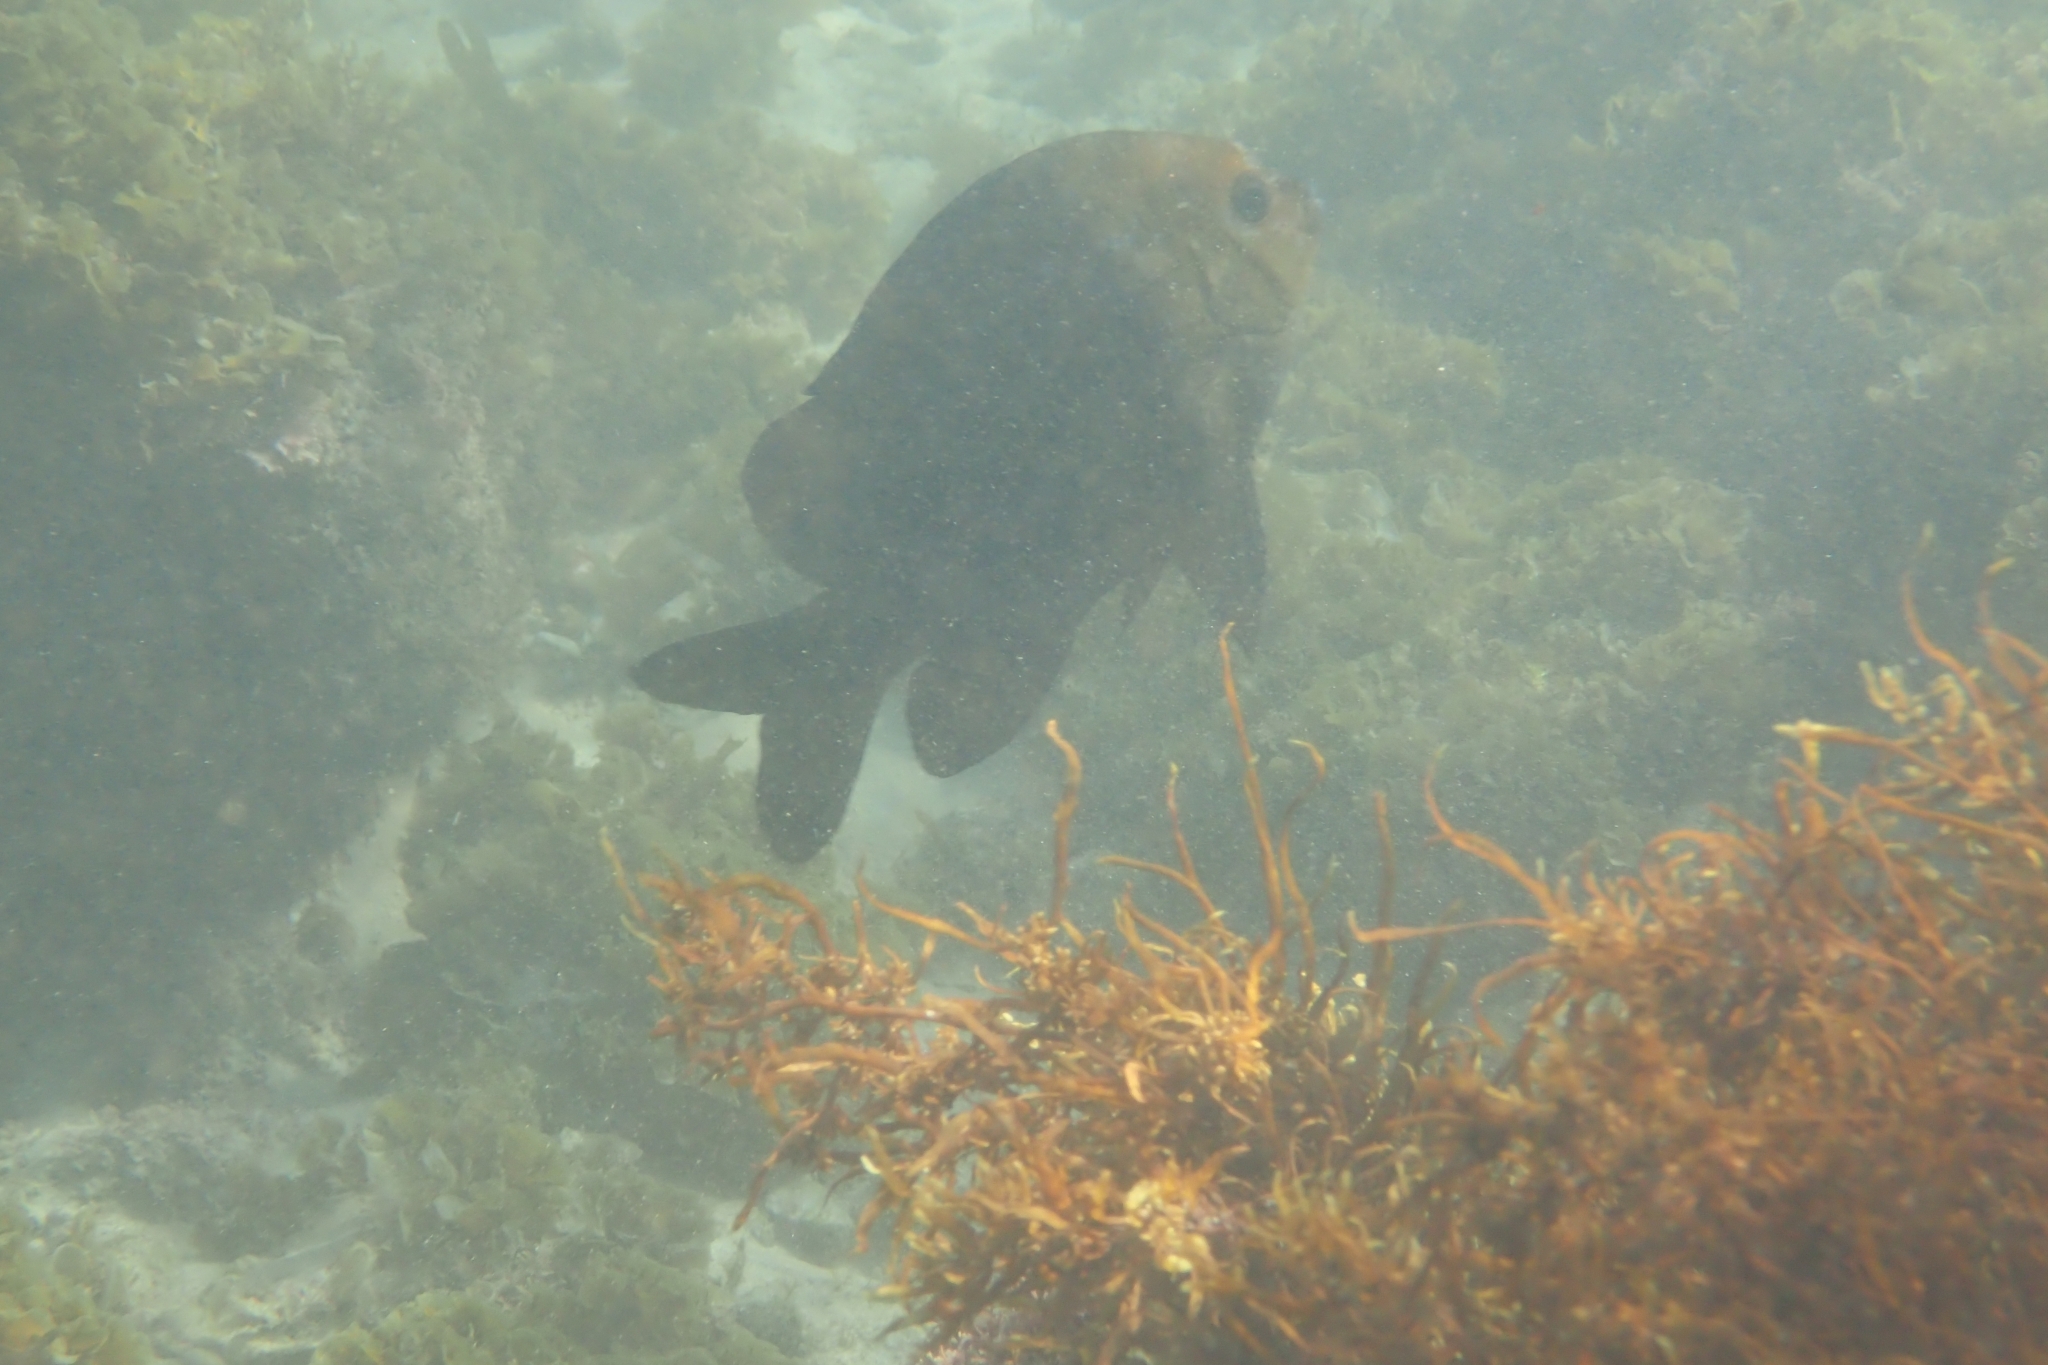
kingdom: Animalia
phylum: Chordata
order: Perciformes
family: Pomacentridae
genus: Parma
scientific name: Parma polylepis
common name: Banded parma
